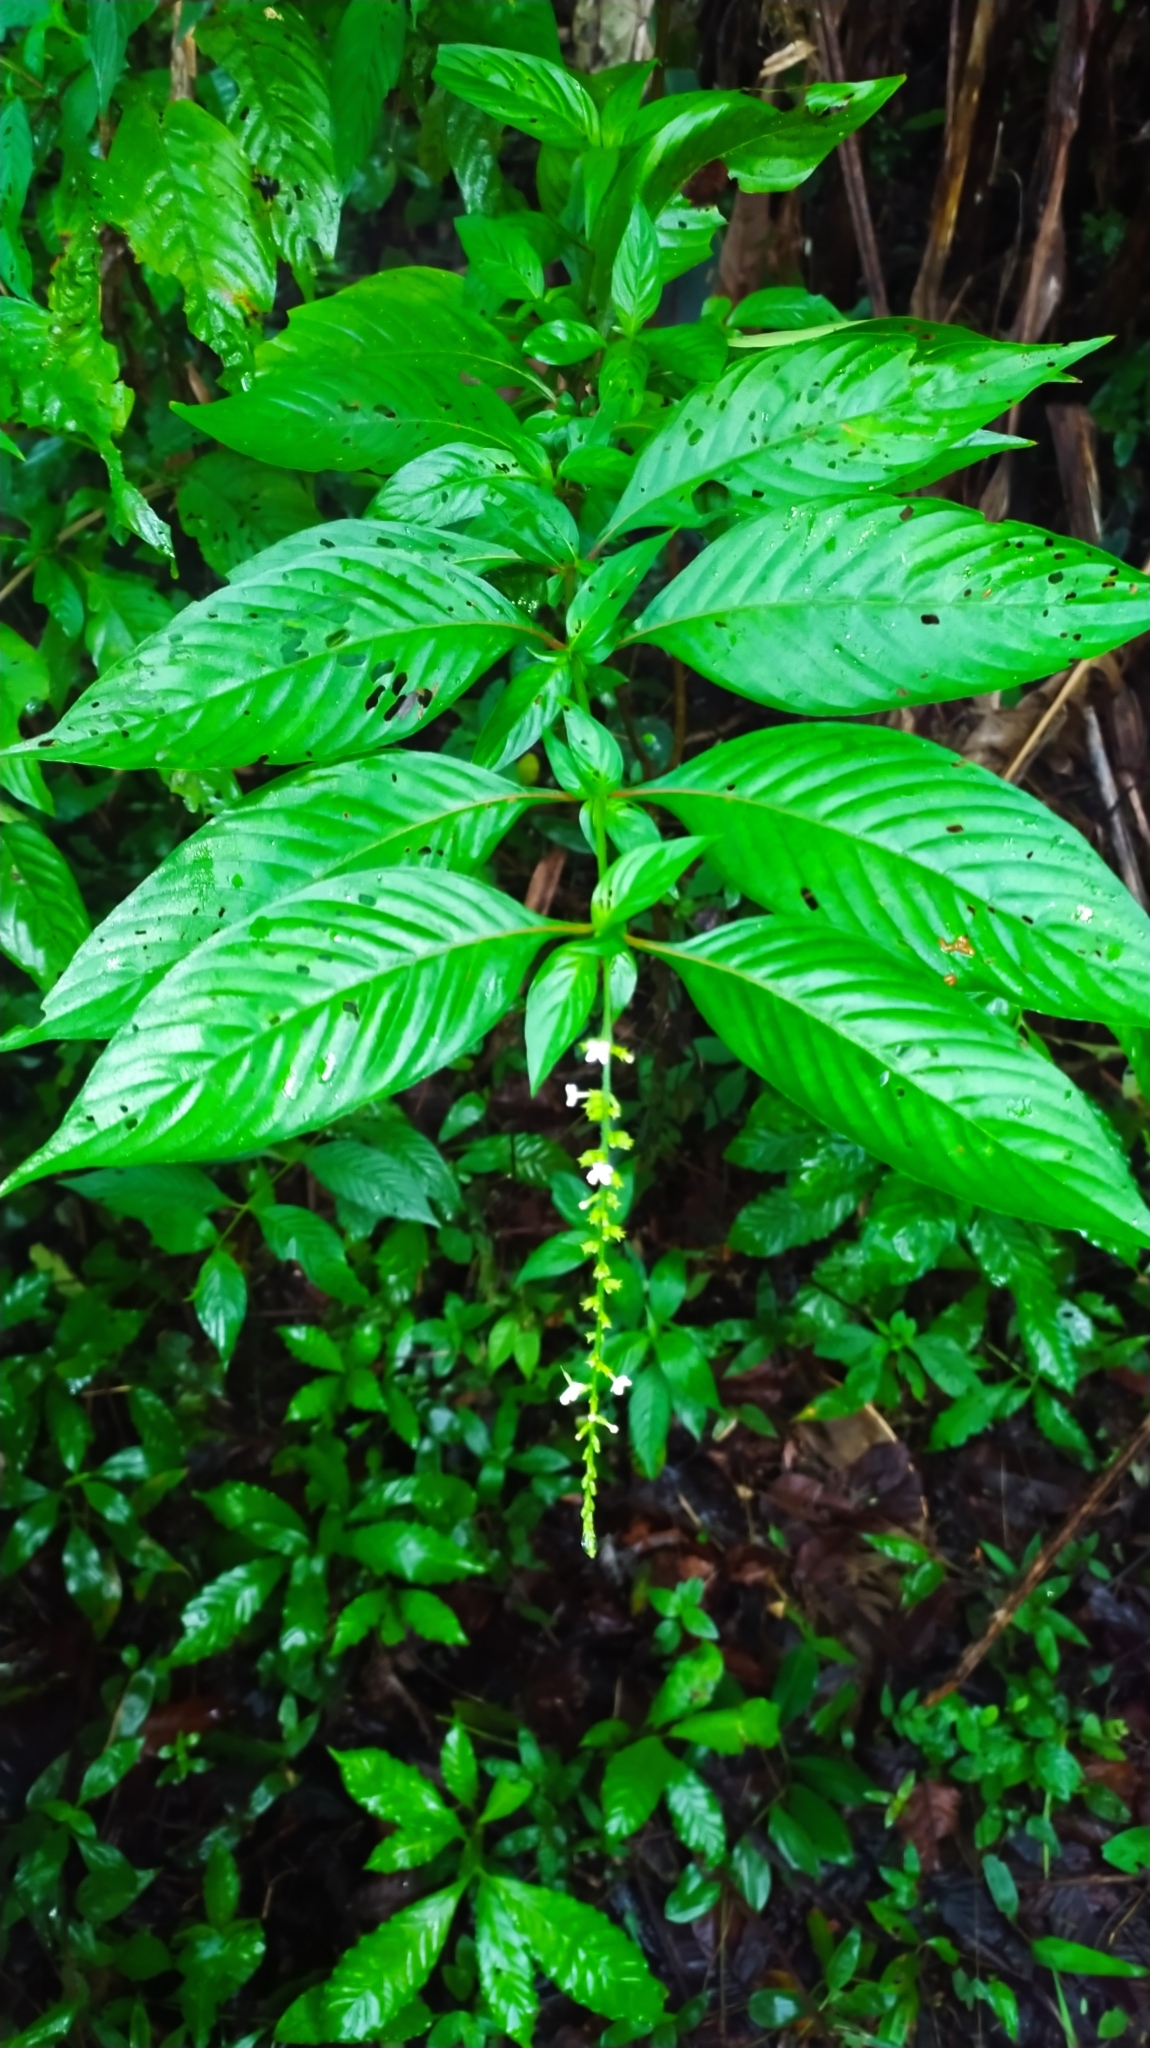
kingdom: Plantae
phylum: Tracheophyta
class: Magnoliopsida
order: Gentianales
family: Rubiaceae
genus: Gonzalagunia
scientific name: Gonzalagunia dicocca
